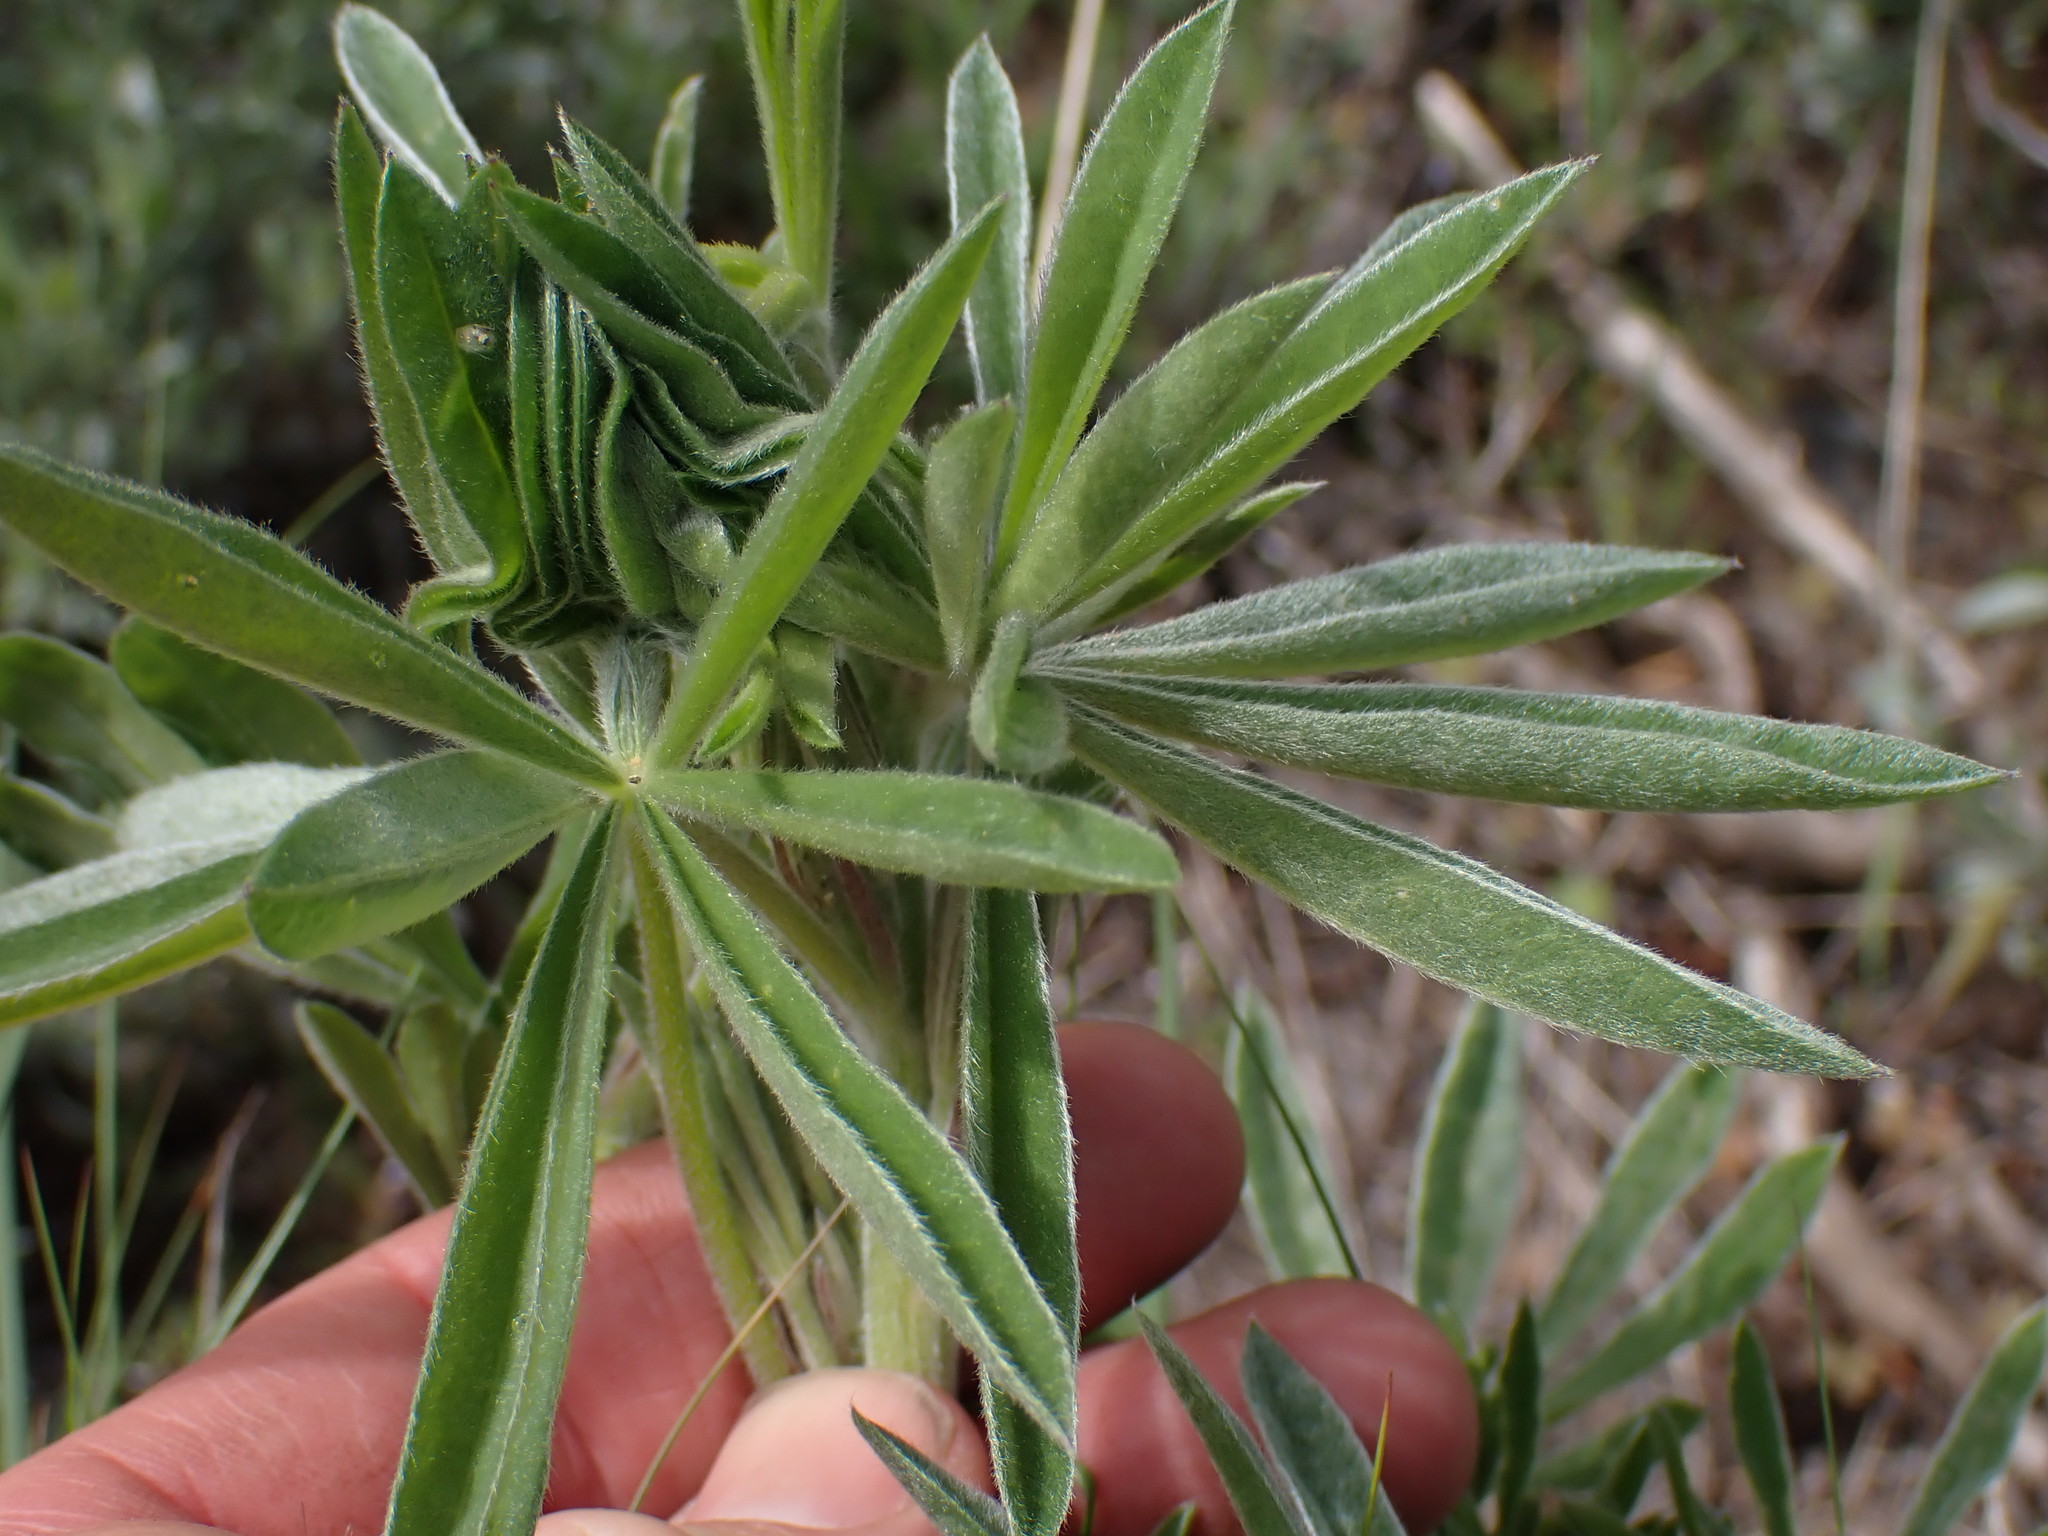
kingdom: Plantae
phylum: Tracheophyta
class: Magnoliopsida
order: Fabales
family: Fabaceae
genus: Lupinus
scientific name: Lupinus sericeus
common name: Silky lupine
